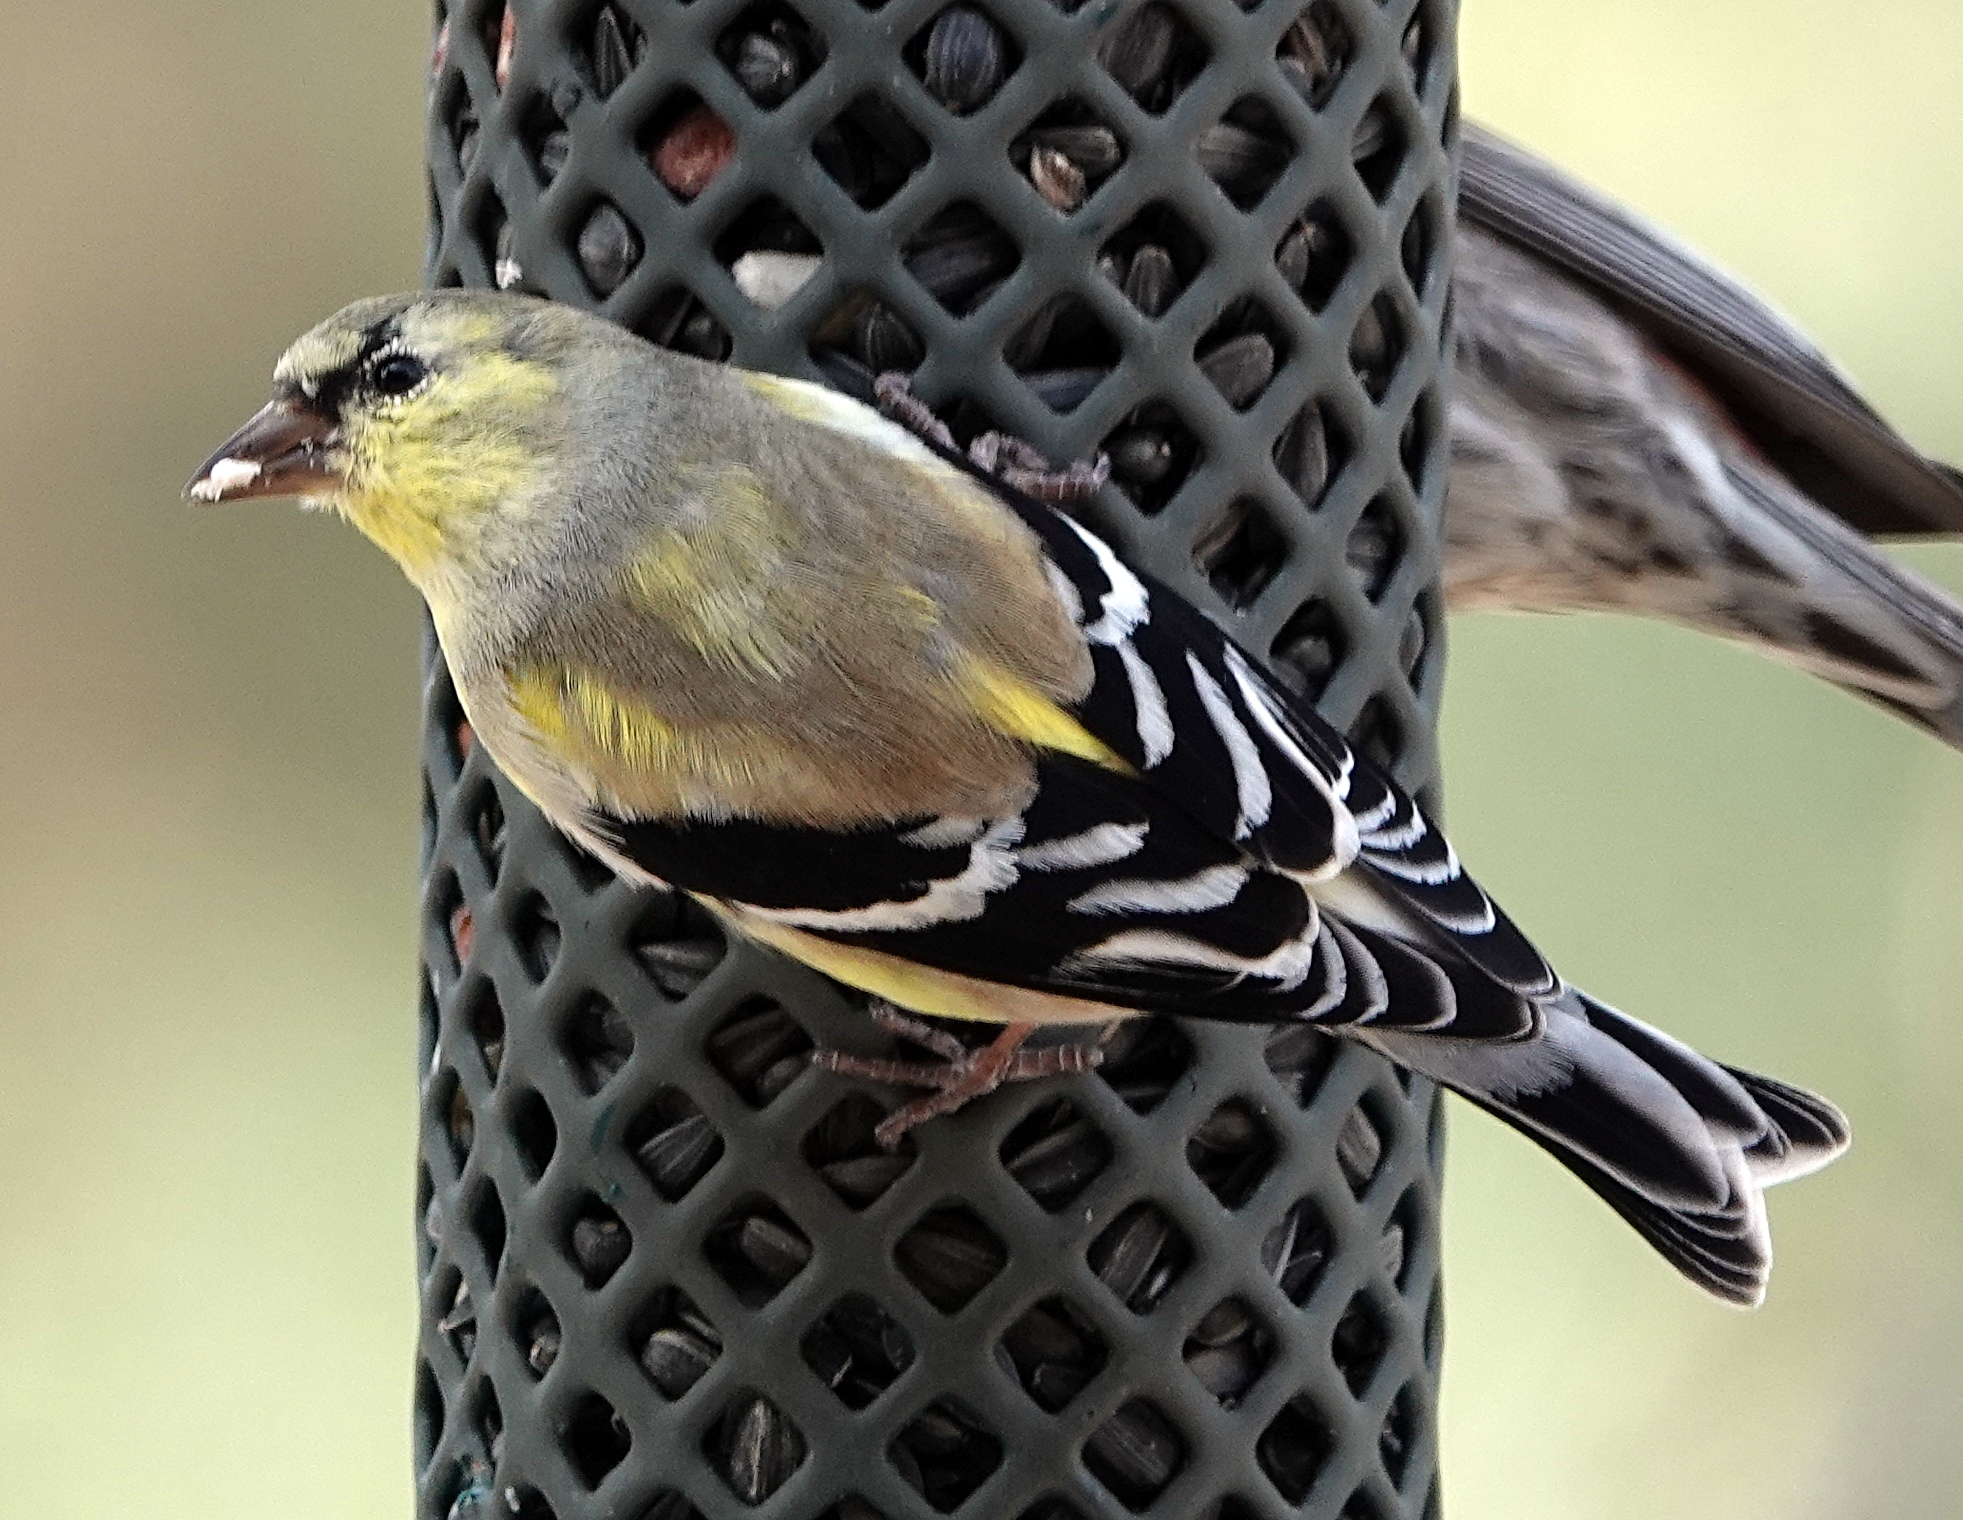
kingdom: Animalia
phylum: Chordata
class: Aves
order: Passeriformes
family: Fringillidae
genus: Spinus
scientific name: Spinus tristis
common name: American goldfinch
